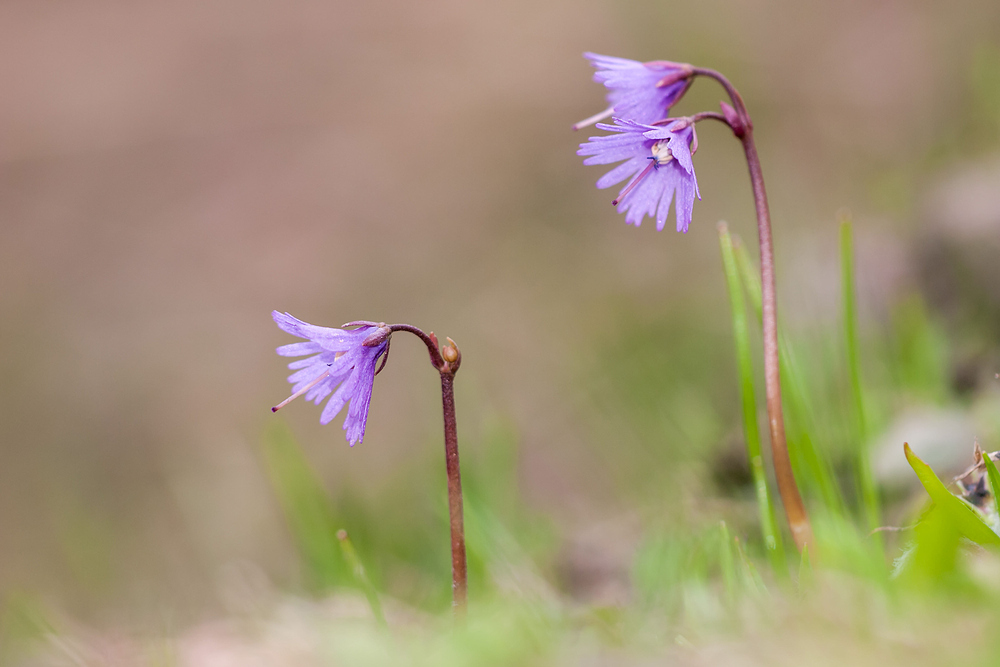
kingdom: Plantae
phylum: Tracheophyta
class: Magnoliopsida
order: Ericales
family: Primulaceae
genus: Soldanella
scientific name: Soldanella alpina
